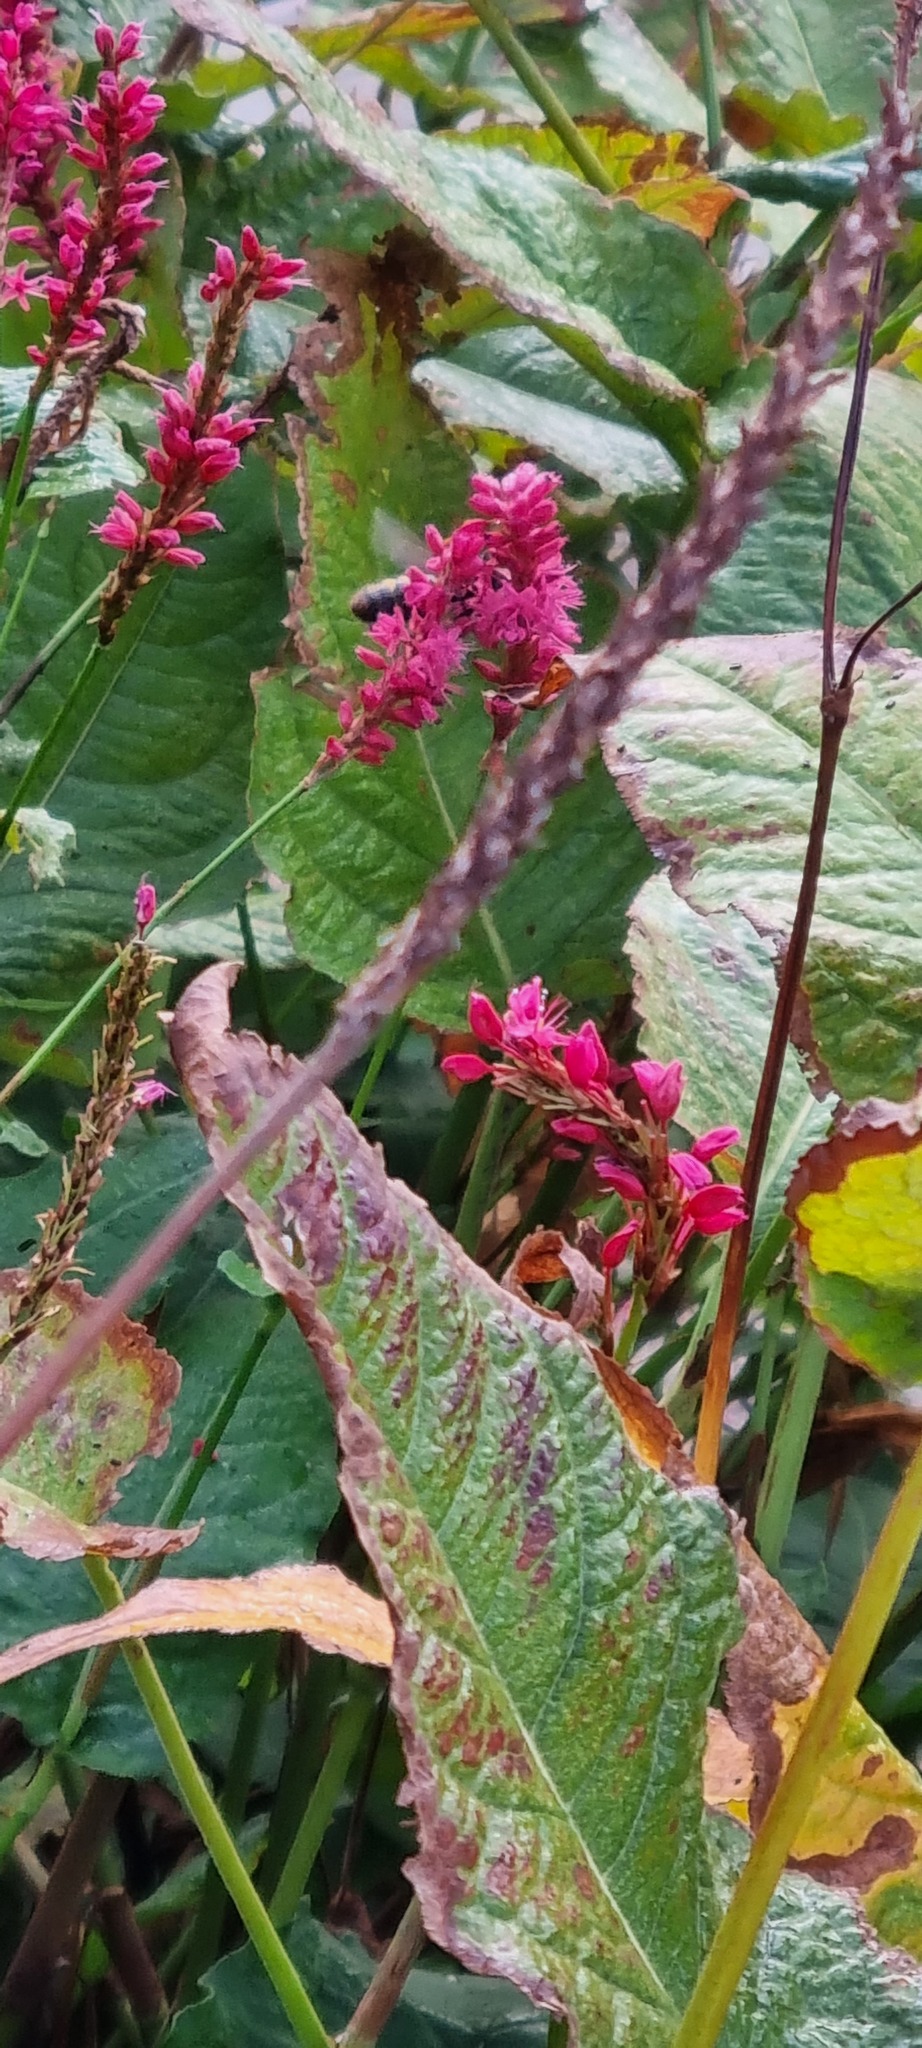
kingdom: Animalia
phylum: Arthropoda
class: Insecta
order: Hymenoptera
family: Vespidae
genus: Vespa
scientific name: Vespa velutina
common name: Asian hornet
